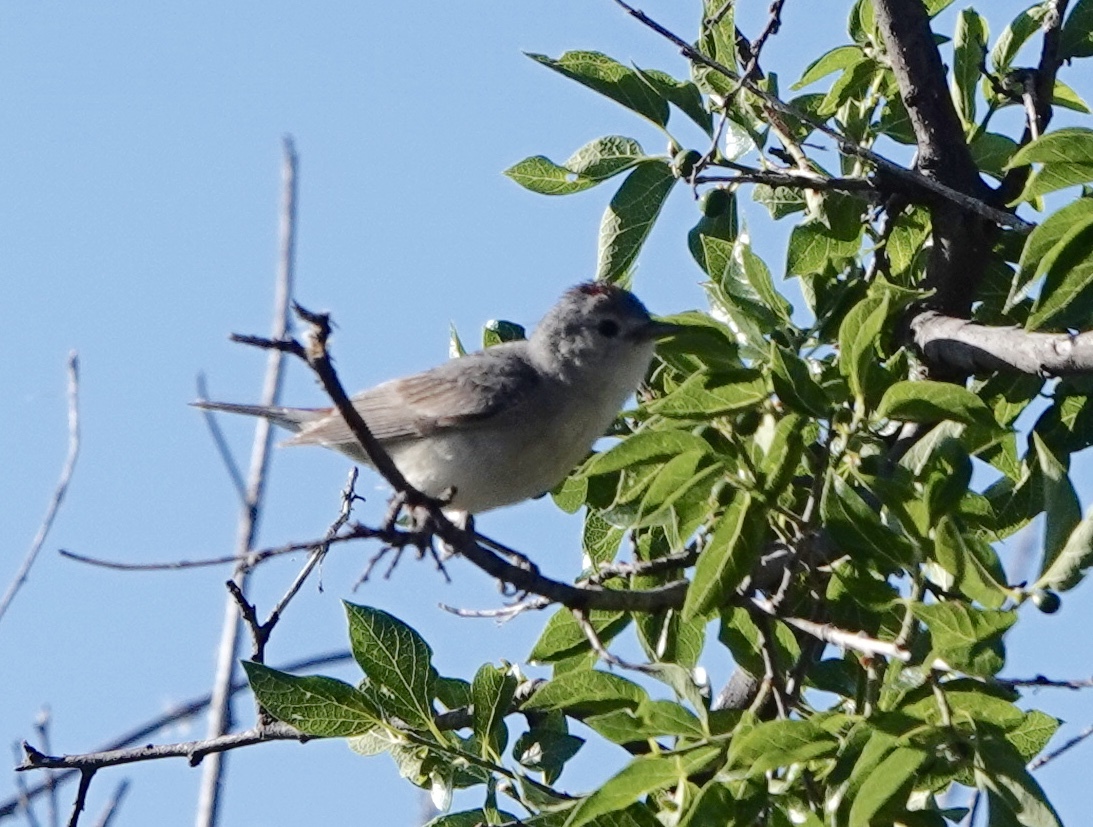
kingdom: Animalia
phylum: Chordata
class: Aves
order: Passeriformes
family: Parulidae
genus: Leiothlypis
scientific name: Leiothlypis luciae
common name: Lucy's warbler
